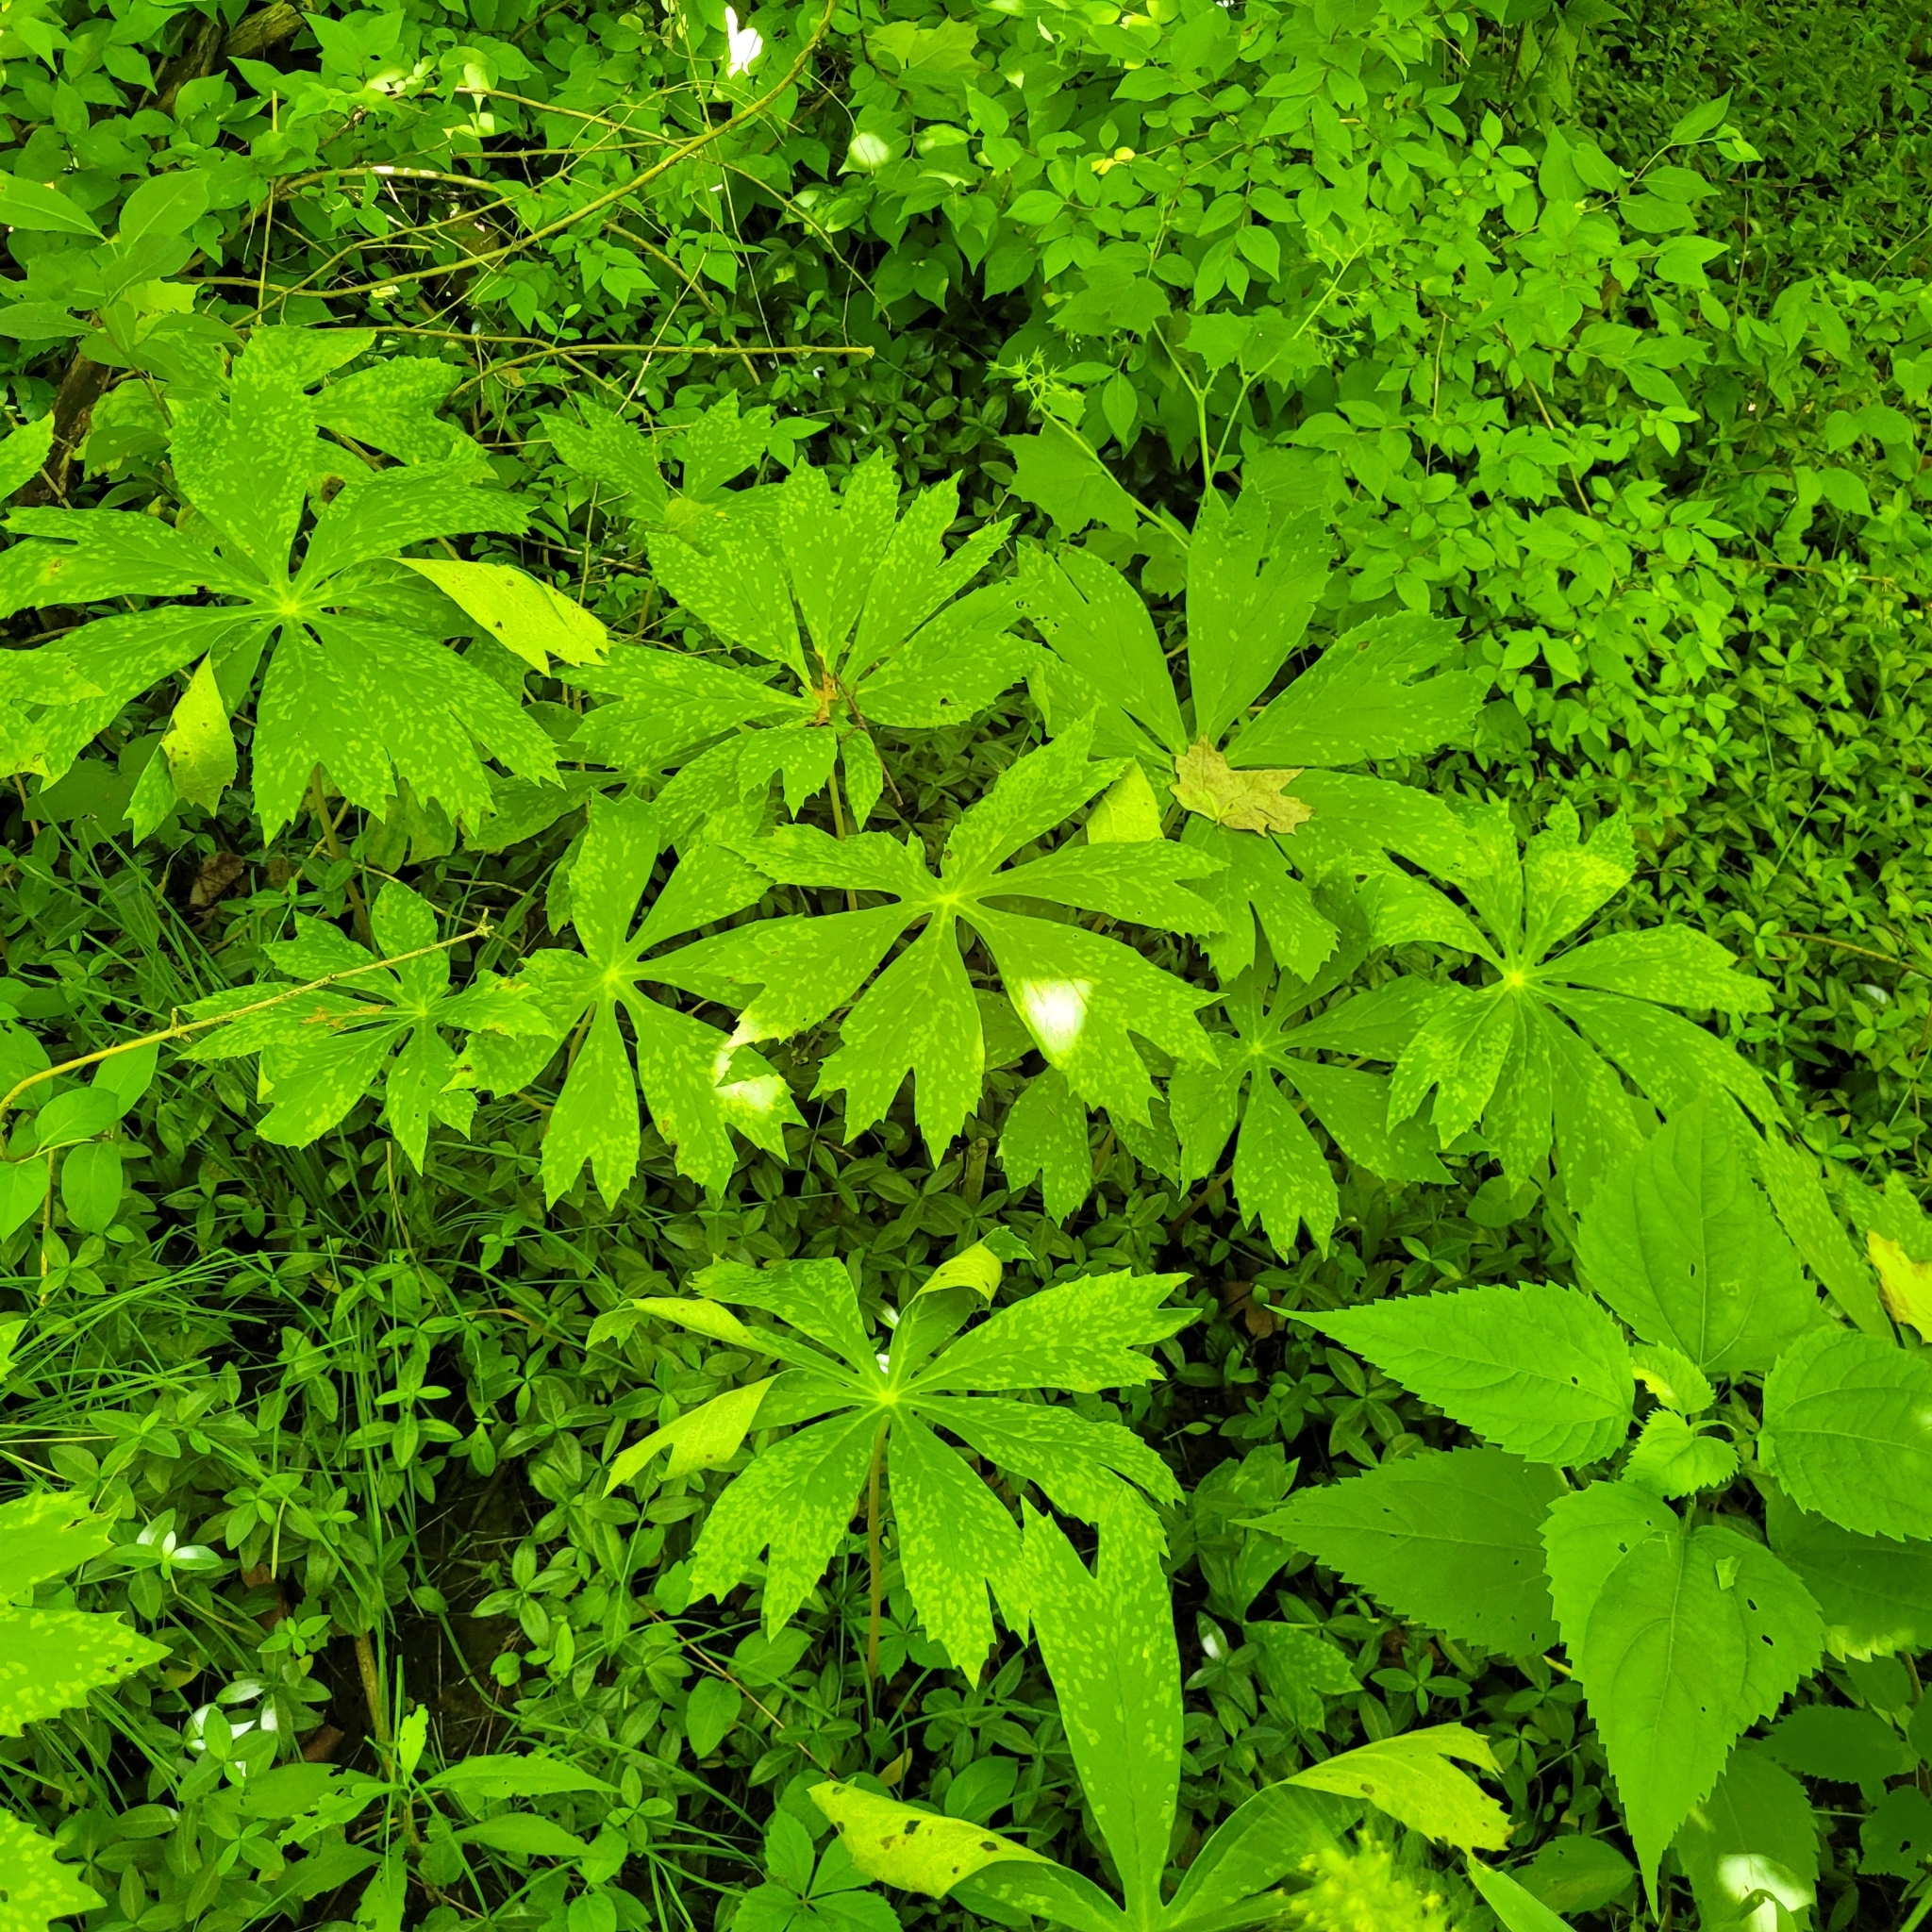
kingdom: Plantae
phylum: Tracheophyta
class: Magnoliopsida
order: Ranunculales
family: Berberidaceae
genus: Podophyllum
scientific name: Podophyllum peltatum
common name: Wild mandrake
